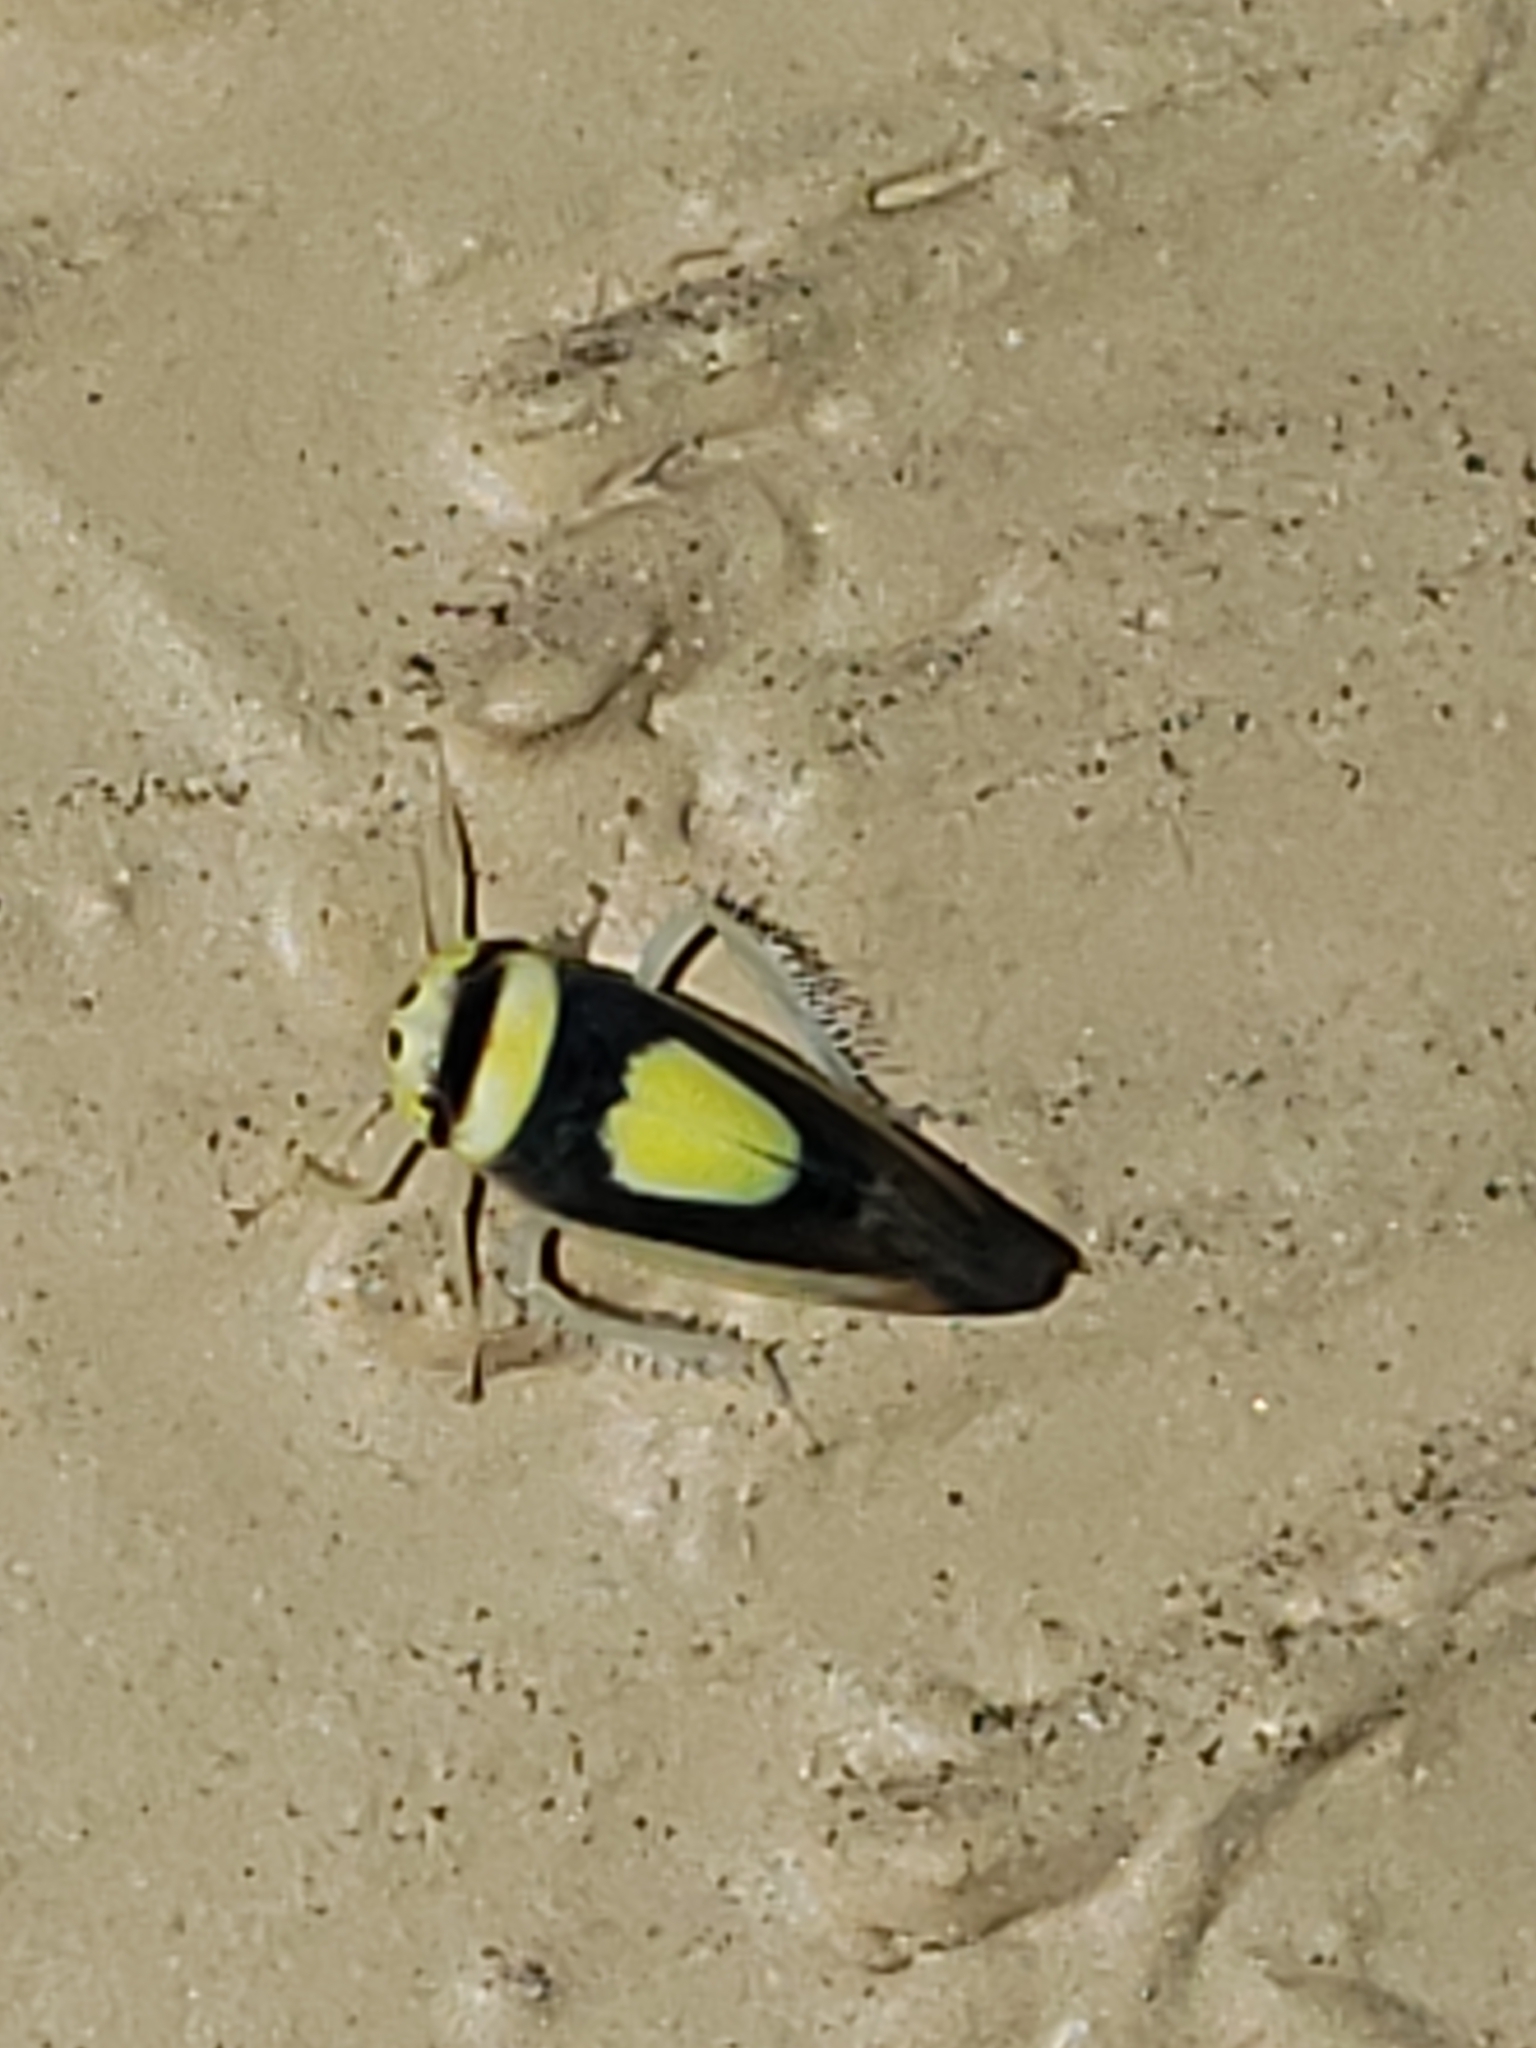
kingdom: Animalia
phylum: Arthropoda
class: Insecta
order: Hemiptera
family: Cicadellidae
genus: Colladonus
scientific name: Colladonus clitellarius
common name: The saddleback leafhopper
